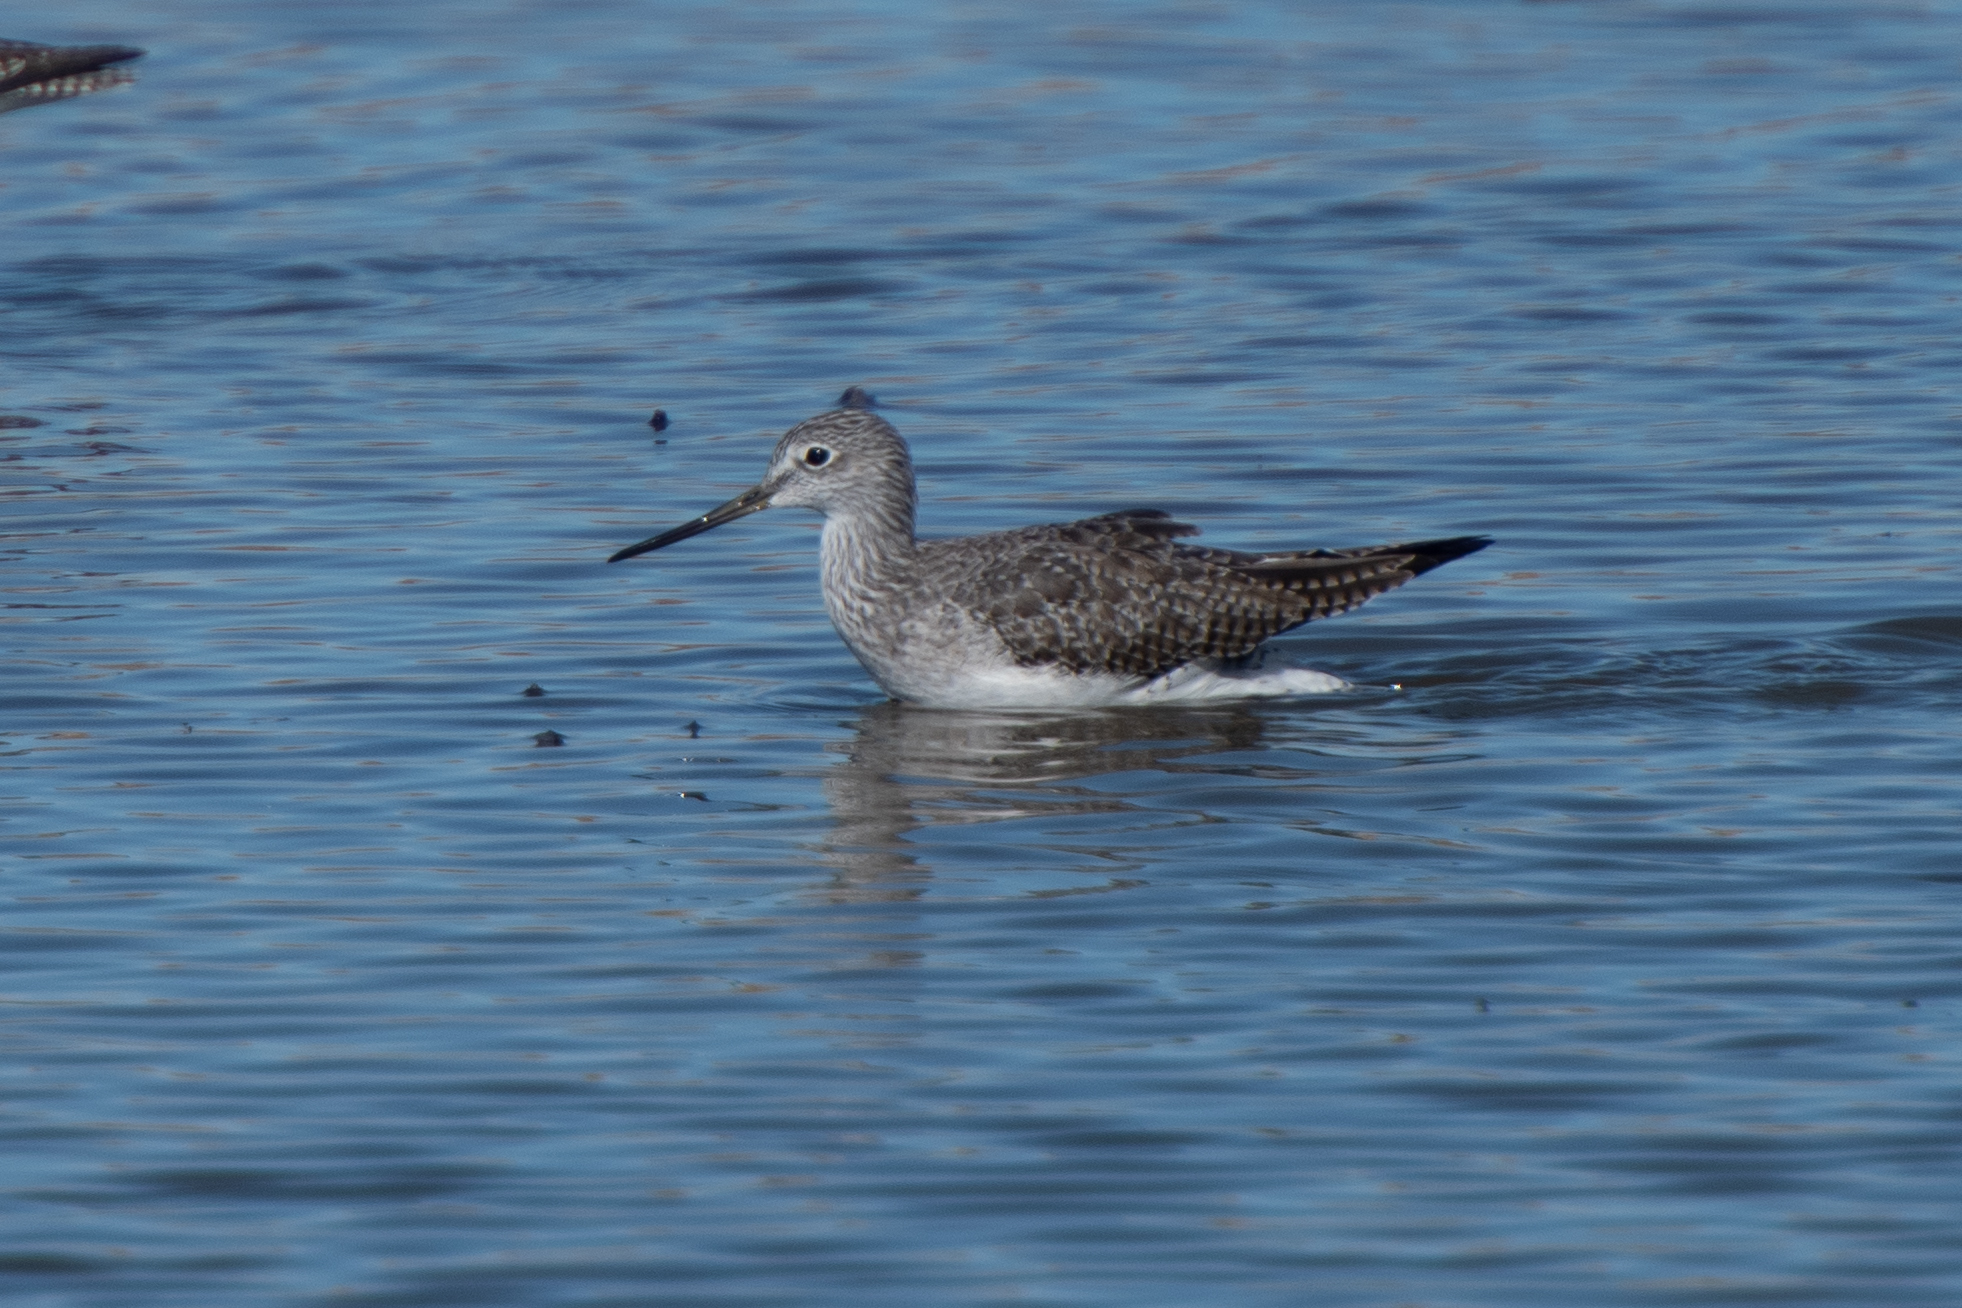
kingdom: Animalia
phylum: Chordata
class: Aves
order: Charadriiformes
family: Scolopacidae
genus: Tringa
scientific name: Tringa melanoleuca
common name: Greater yellowlegs
